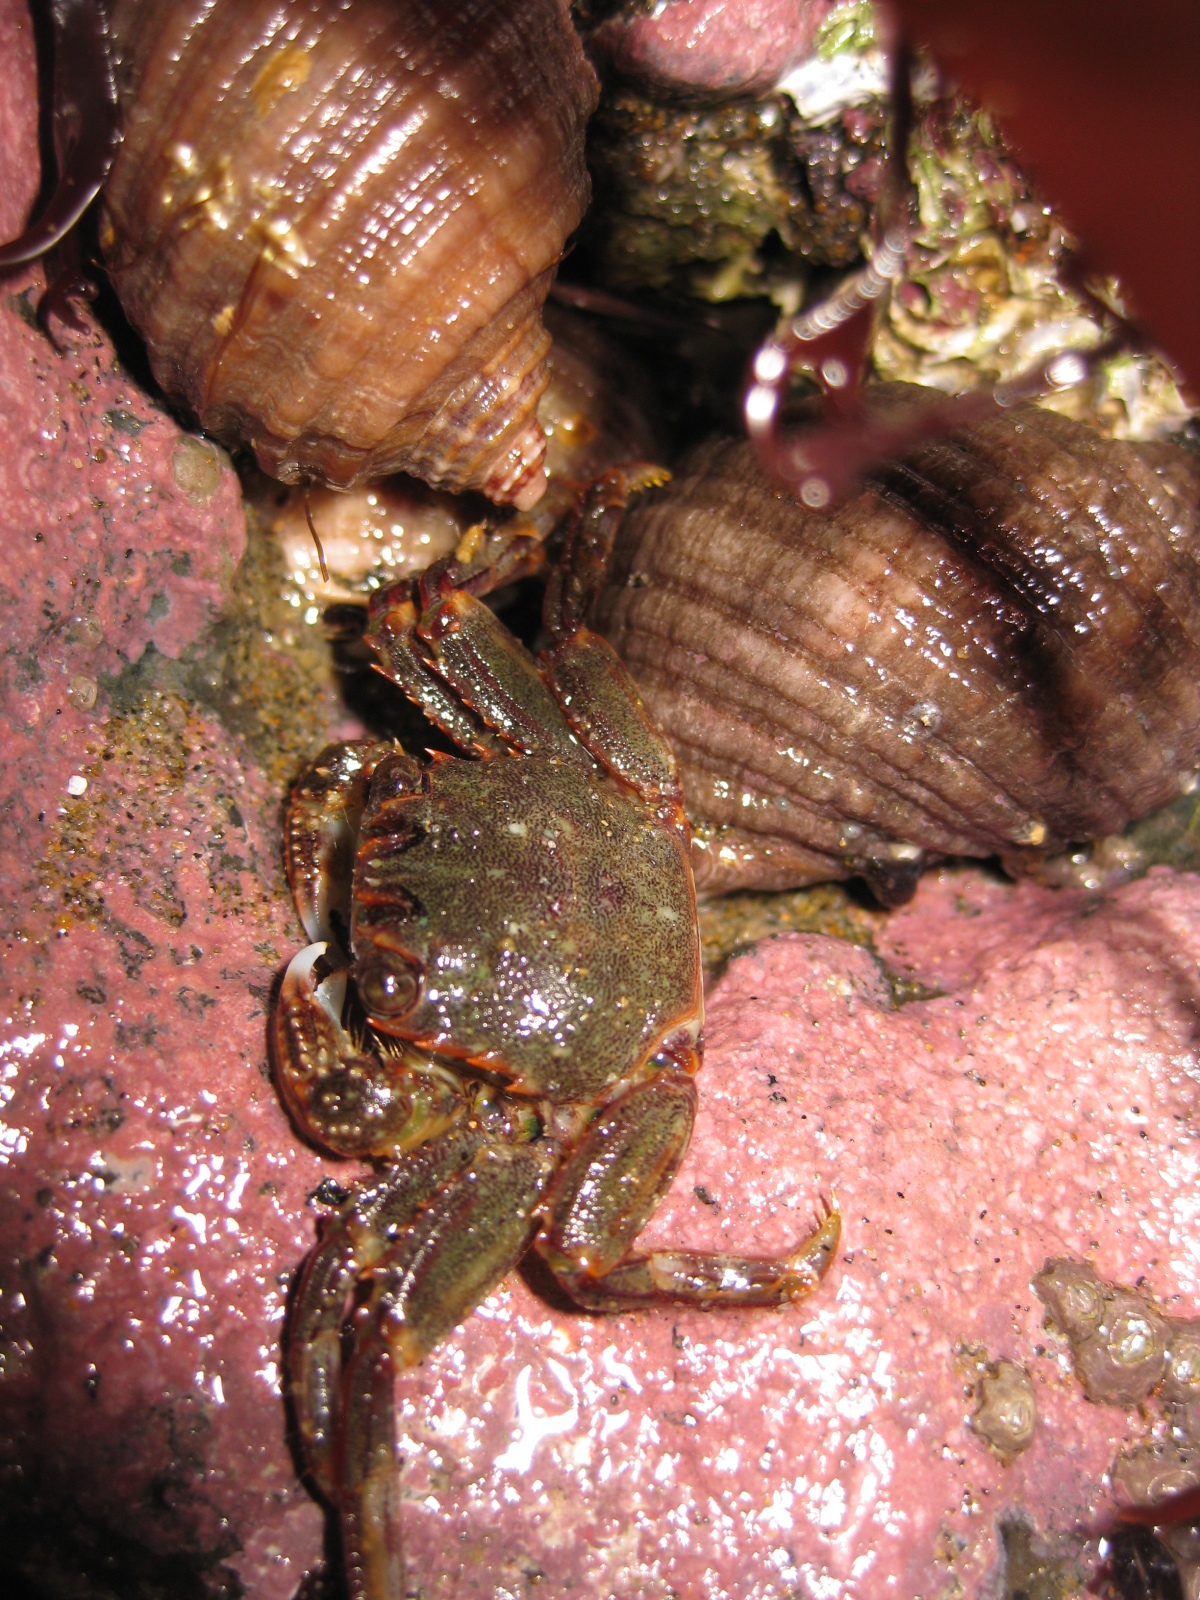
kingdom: Animalia
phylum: Arthropoda
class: Malacostraca
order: Decapoda
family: Plagusiidae
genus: Guinusia
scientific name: Guinusia chabrus
